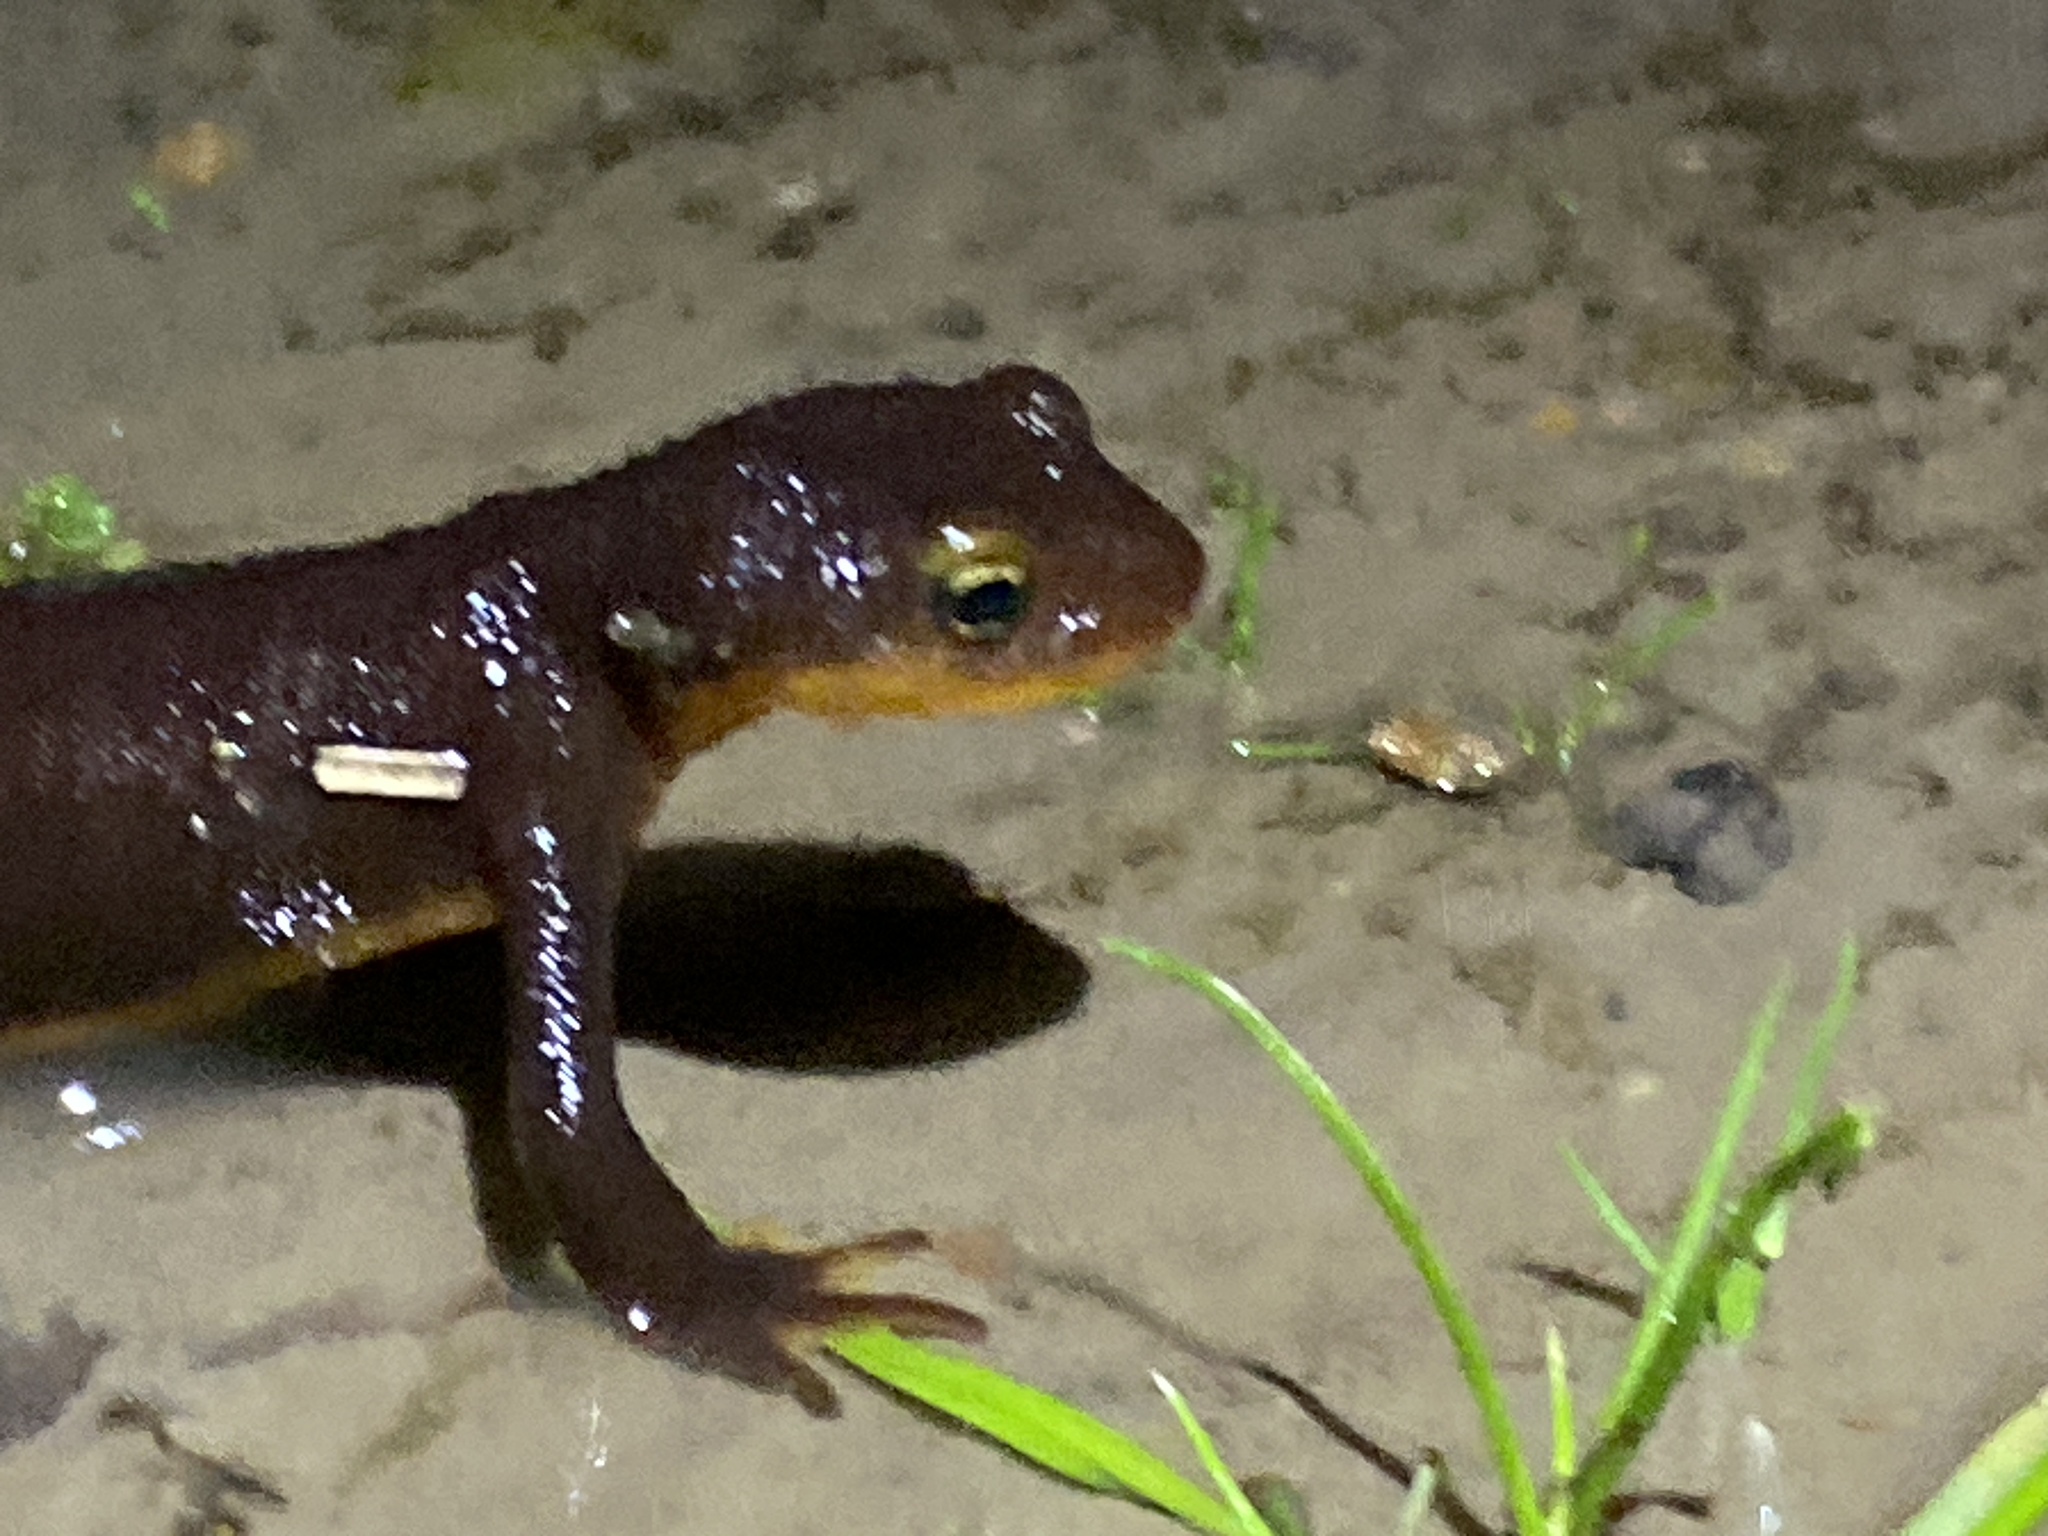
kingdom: Animalia
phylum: Chordata
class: Amphibia
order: Caudata
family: Salamandridae
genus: Taricha
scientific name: Taricha torosa
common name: California newt
